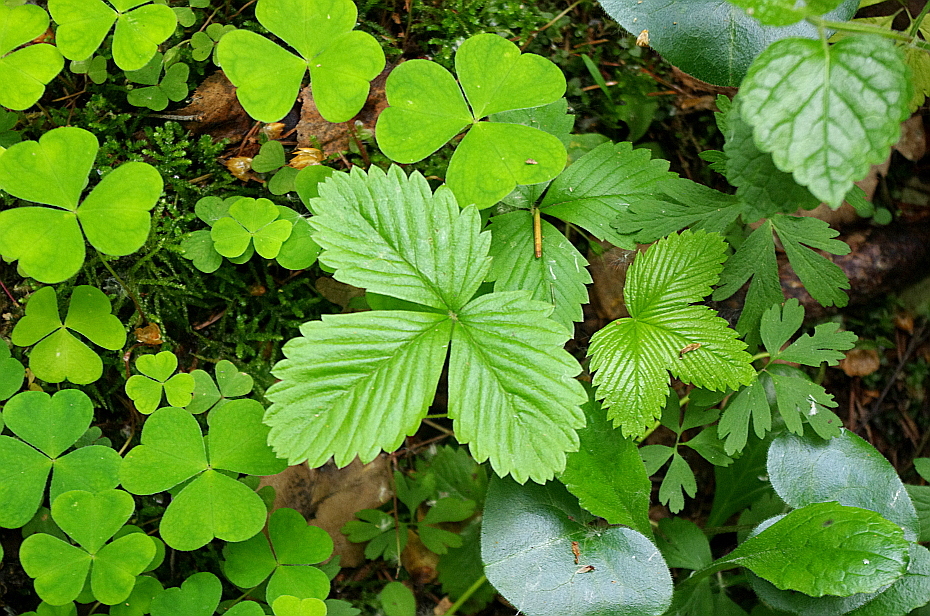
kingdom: Plantae
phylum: Tracheophyta
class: Magnoliopsida
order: Rosales
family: Rosaceae
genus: Fragaria
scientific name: Fragaria vesca
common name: Wild strawberry
